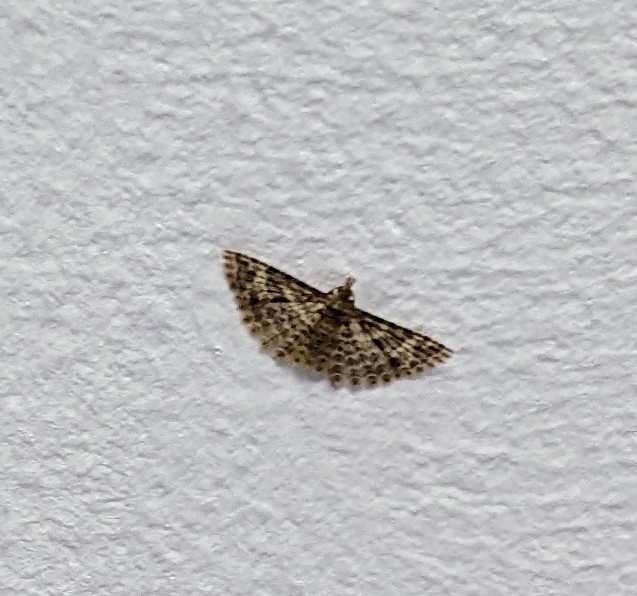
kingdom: Animalia
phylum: Arthropoda
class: Insecta
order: Lepidoptera
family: Alucitidae
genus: Alucita
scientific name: Alucita hexadactyla
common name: Twenty-plume moth
